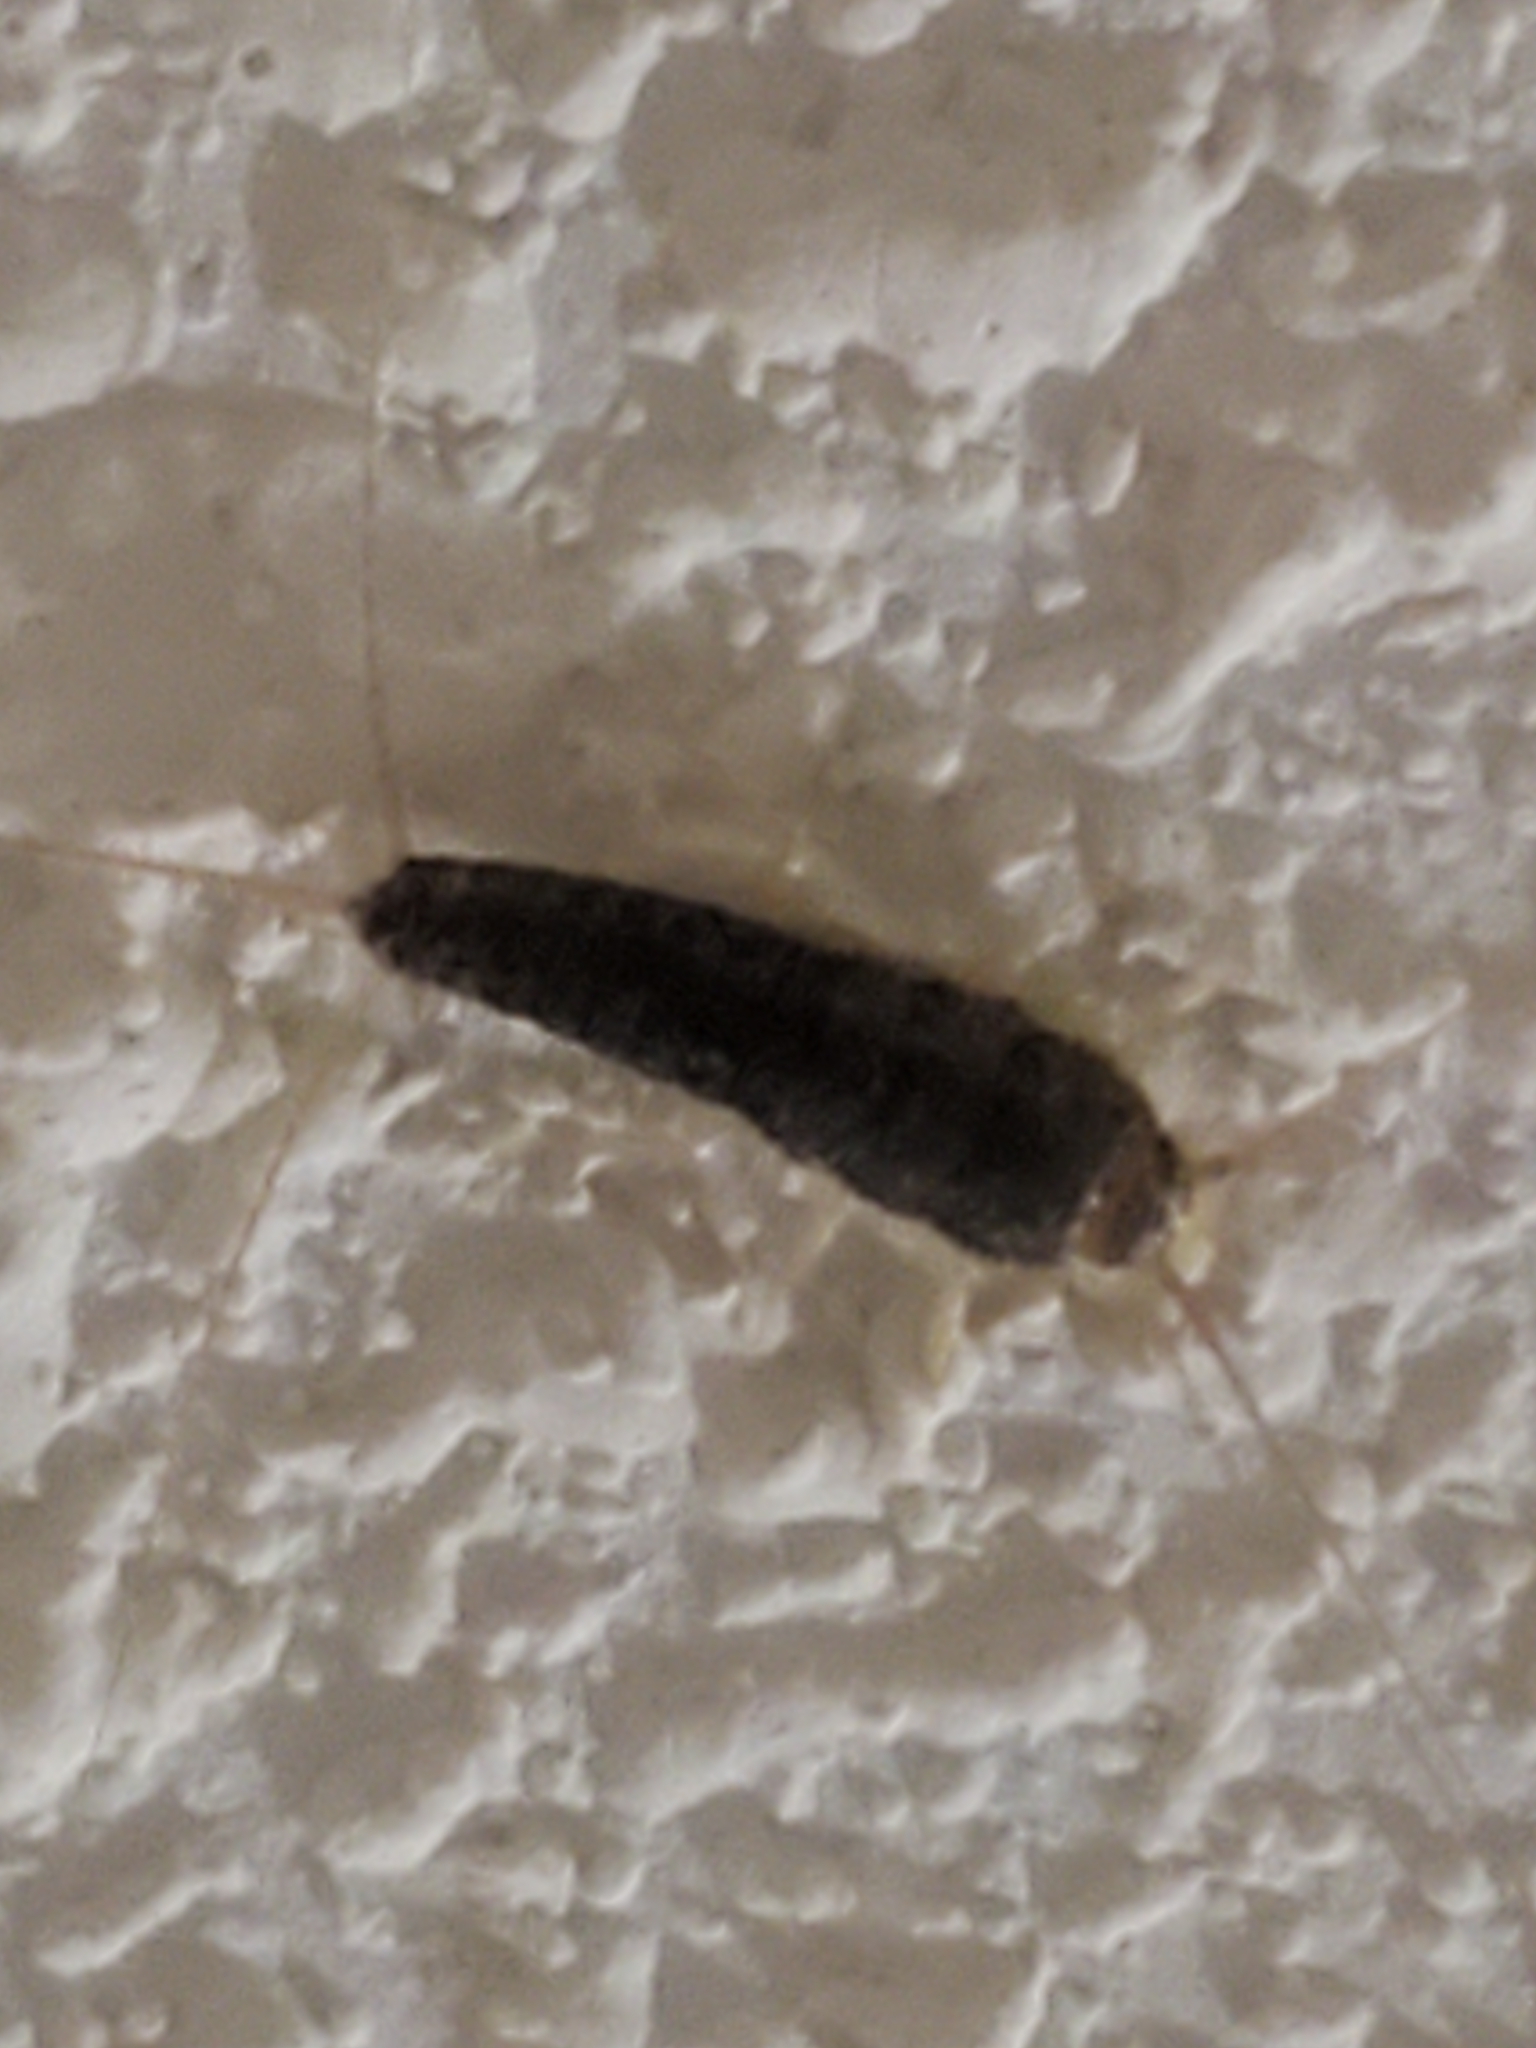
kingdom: Animalia
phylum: Arthropoda
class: Insecta
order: Zygentoma
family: Lepismatidae
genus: Ctenolepisma
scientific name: Ctenolepisma longicaudatum
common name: Silverfish
